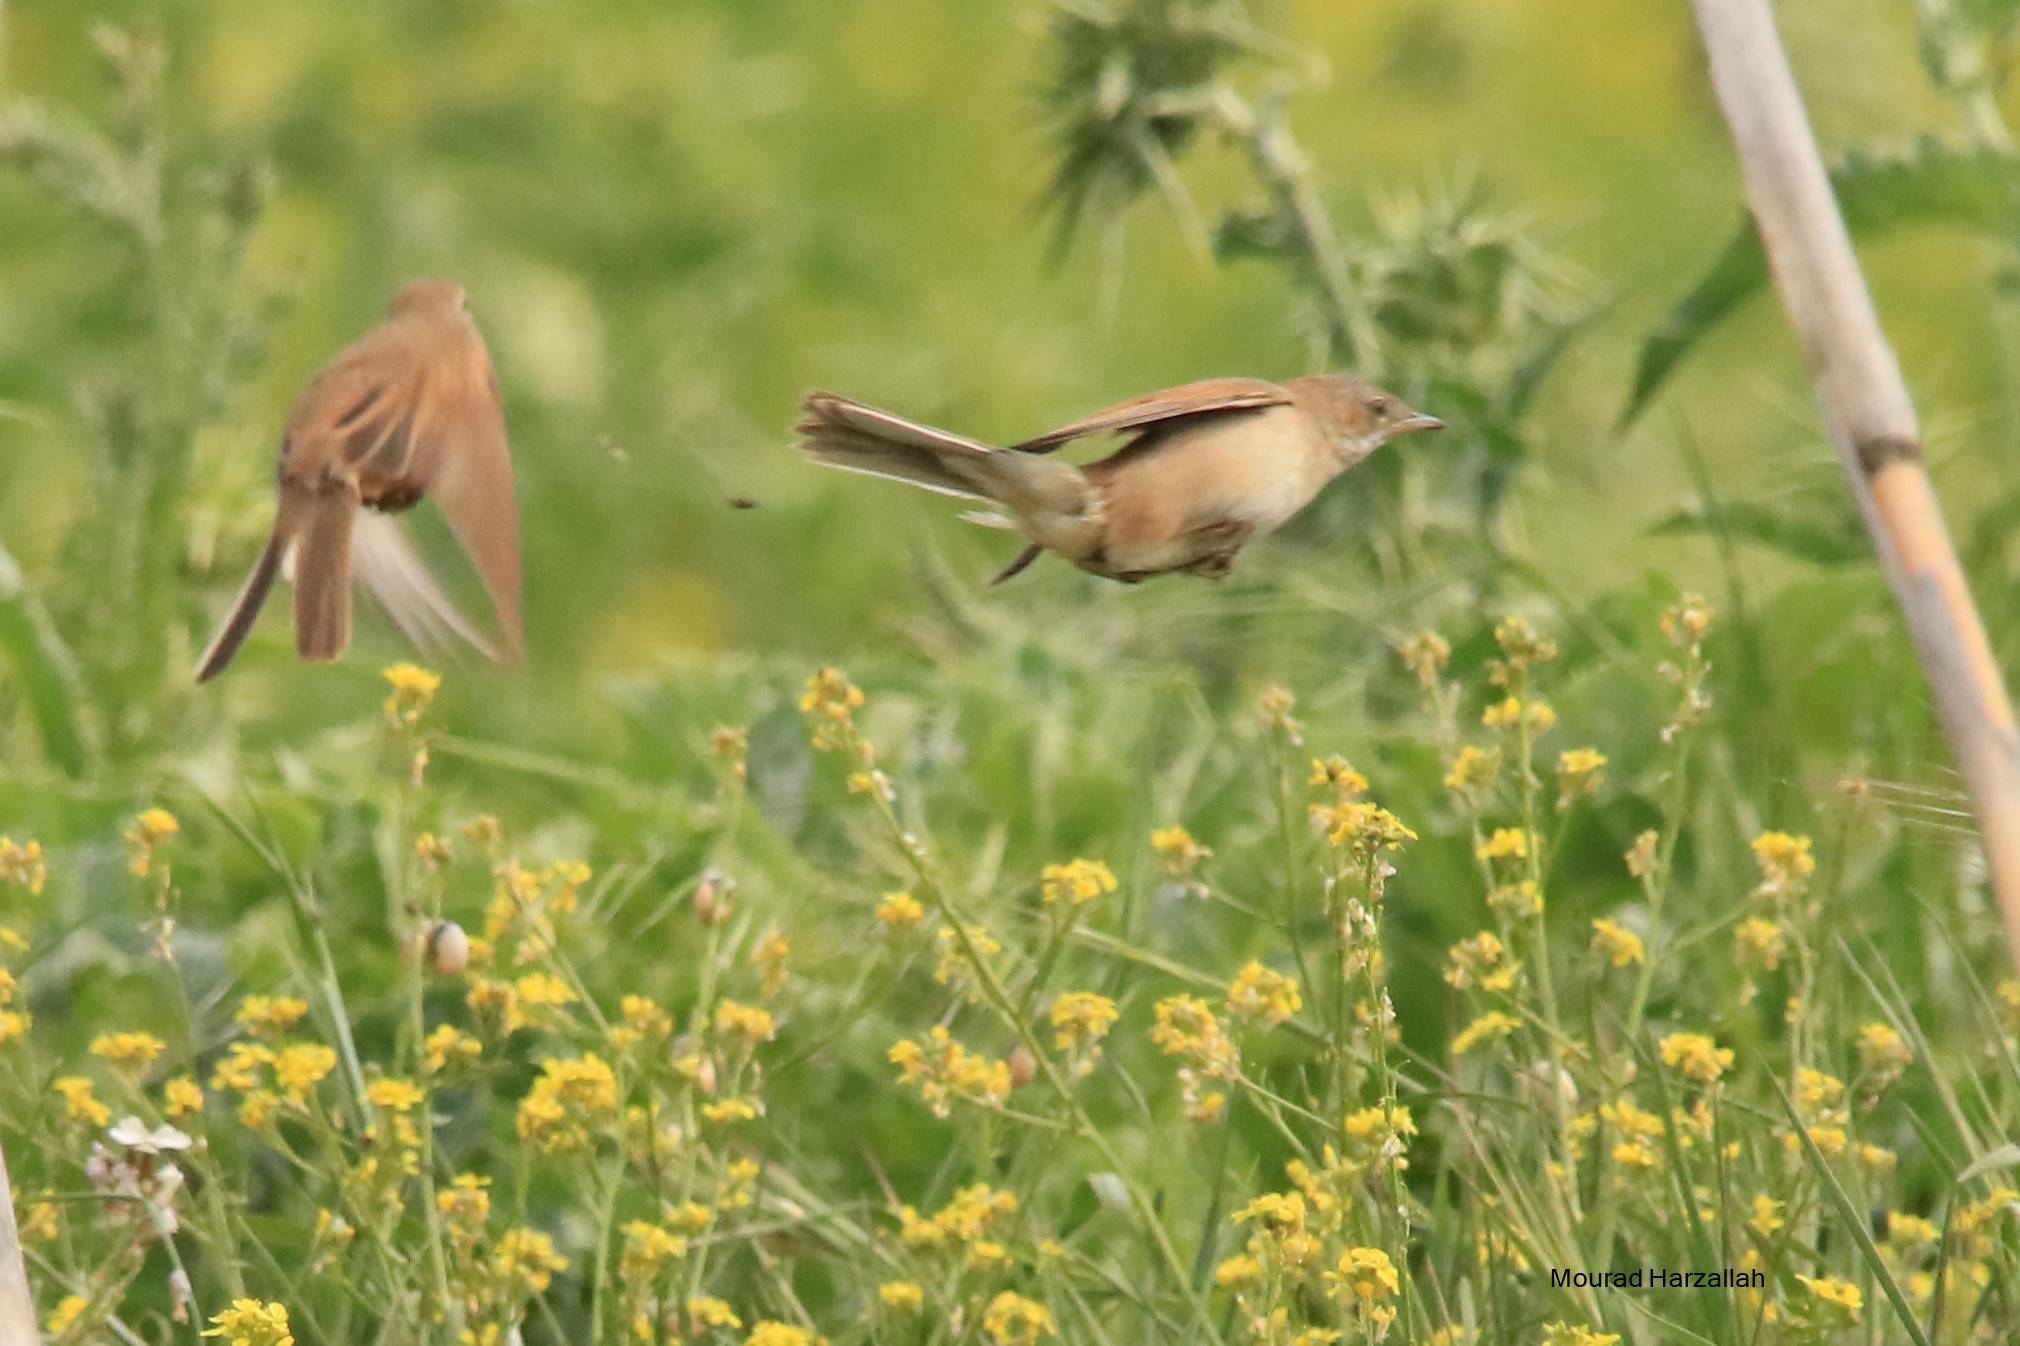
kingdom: Animalia
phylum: Chordata
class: Aves
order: Passeriformes
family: Sylviidae
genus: Sylvia
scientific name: Sylvia communis
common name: Common whitethroat
